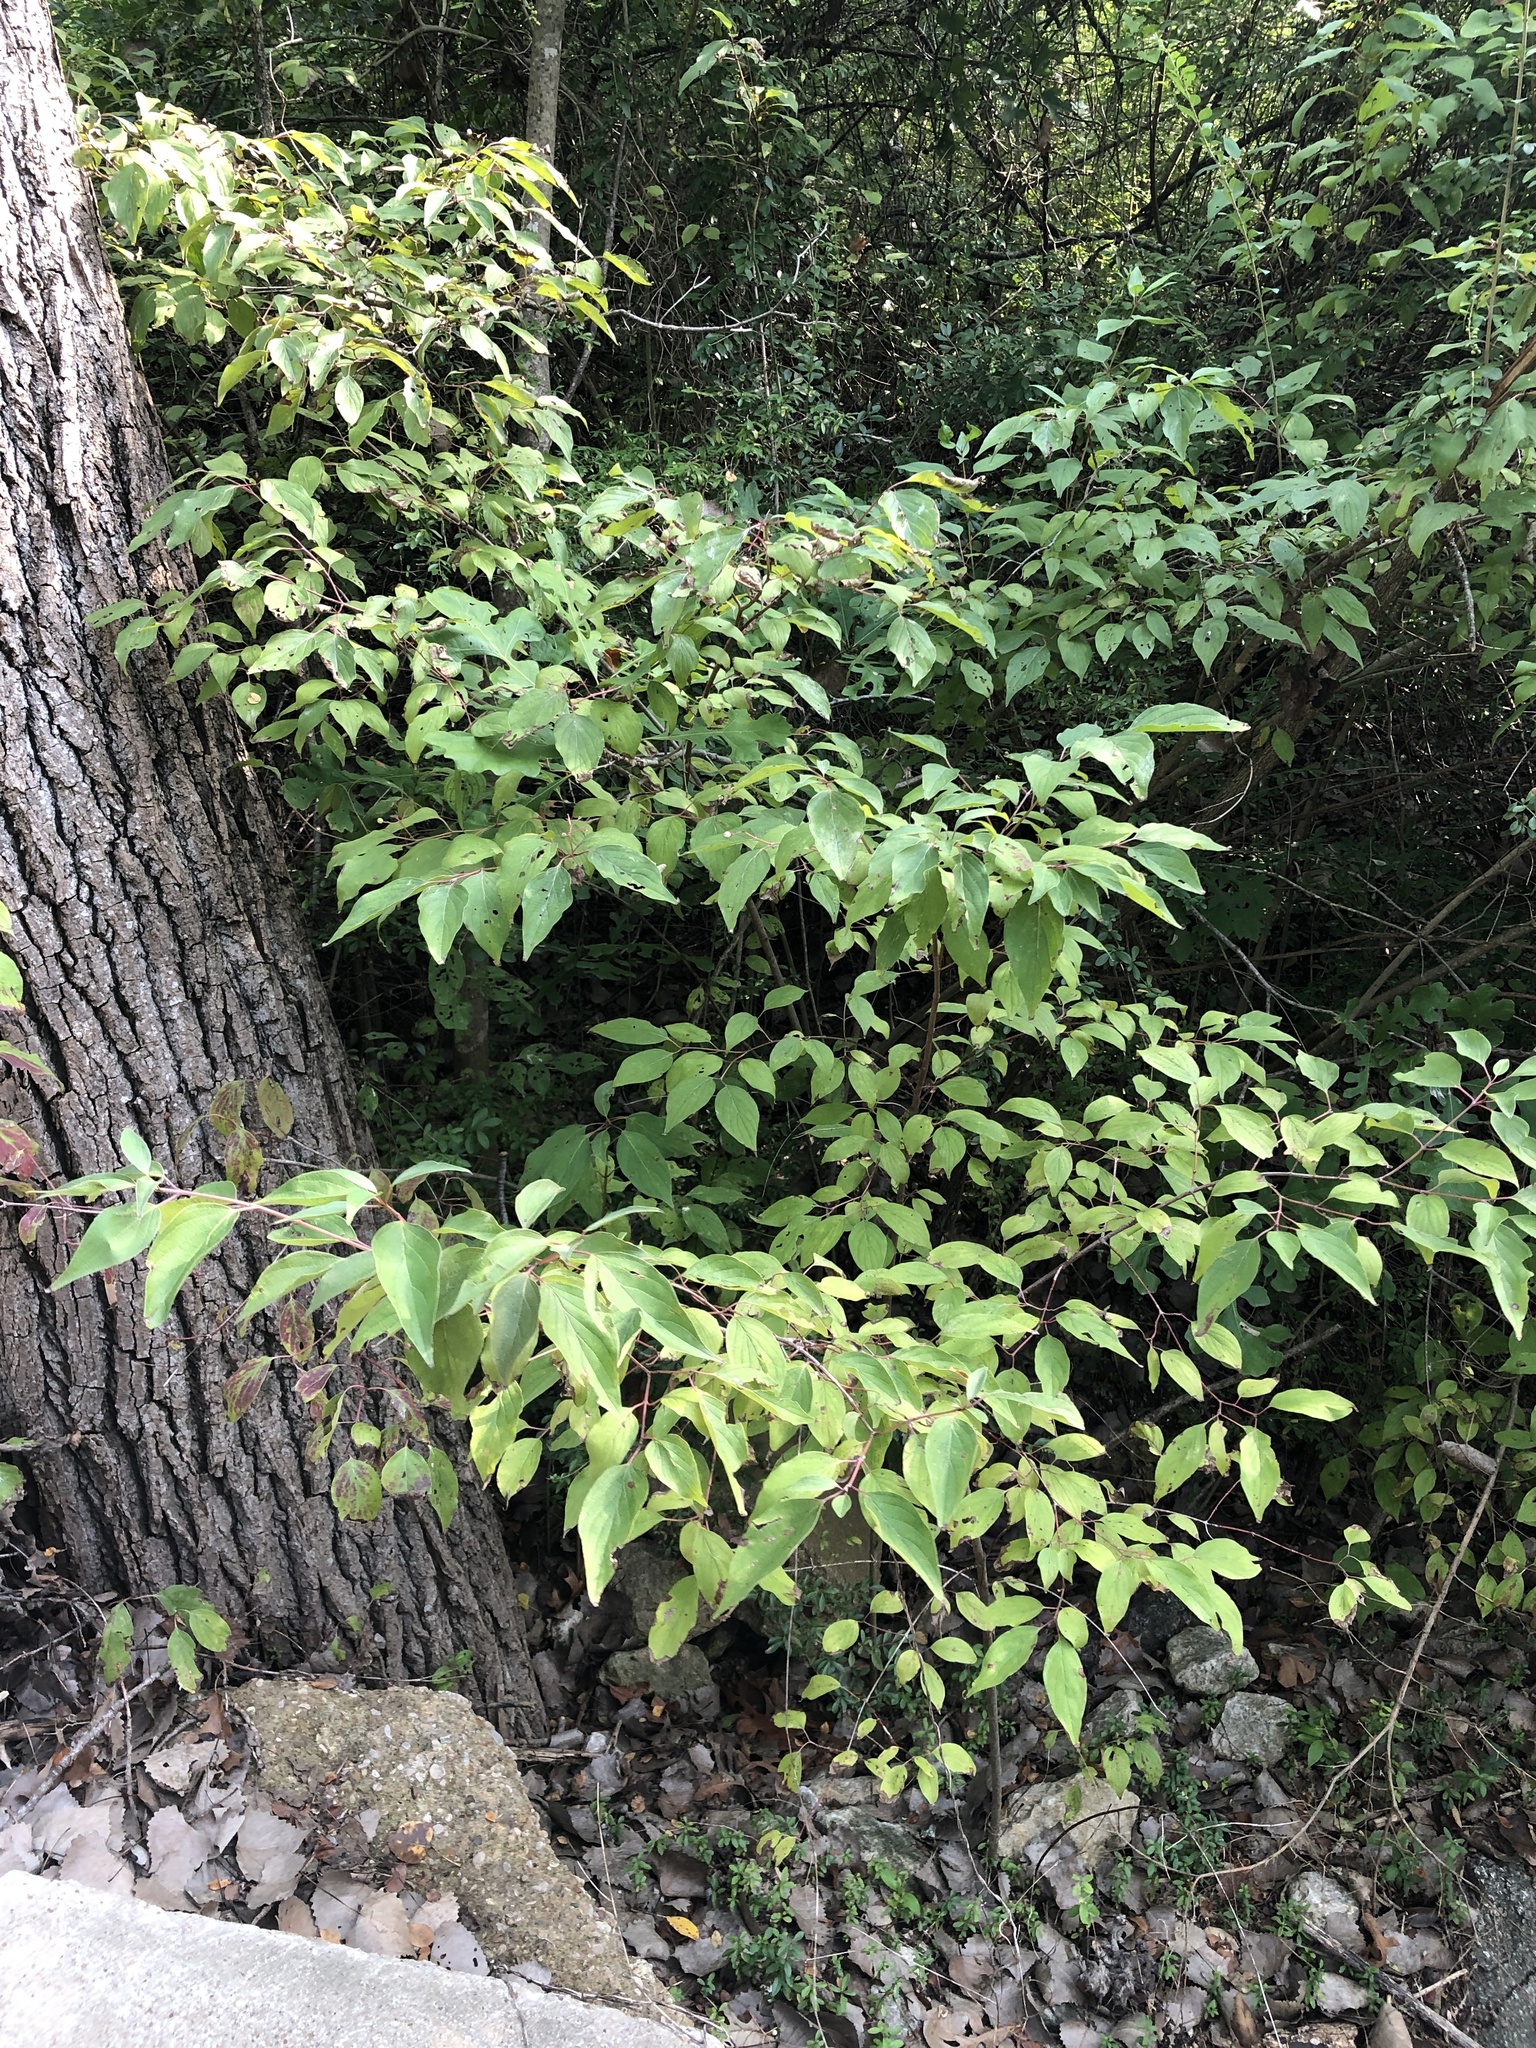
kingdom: Plantae
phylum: Tracheophyta
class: Magnoliopsida
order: Cornales
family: Cornaceae
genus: Cornus
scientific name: Cornus drummondii
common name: Rough-leaf dogwood
